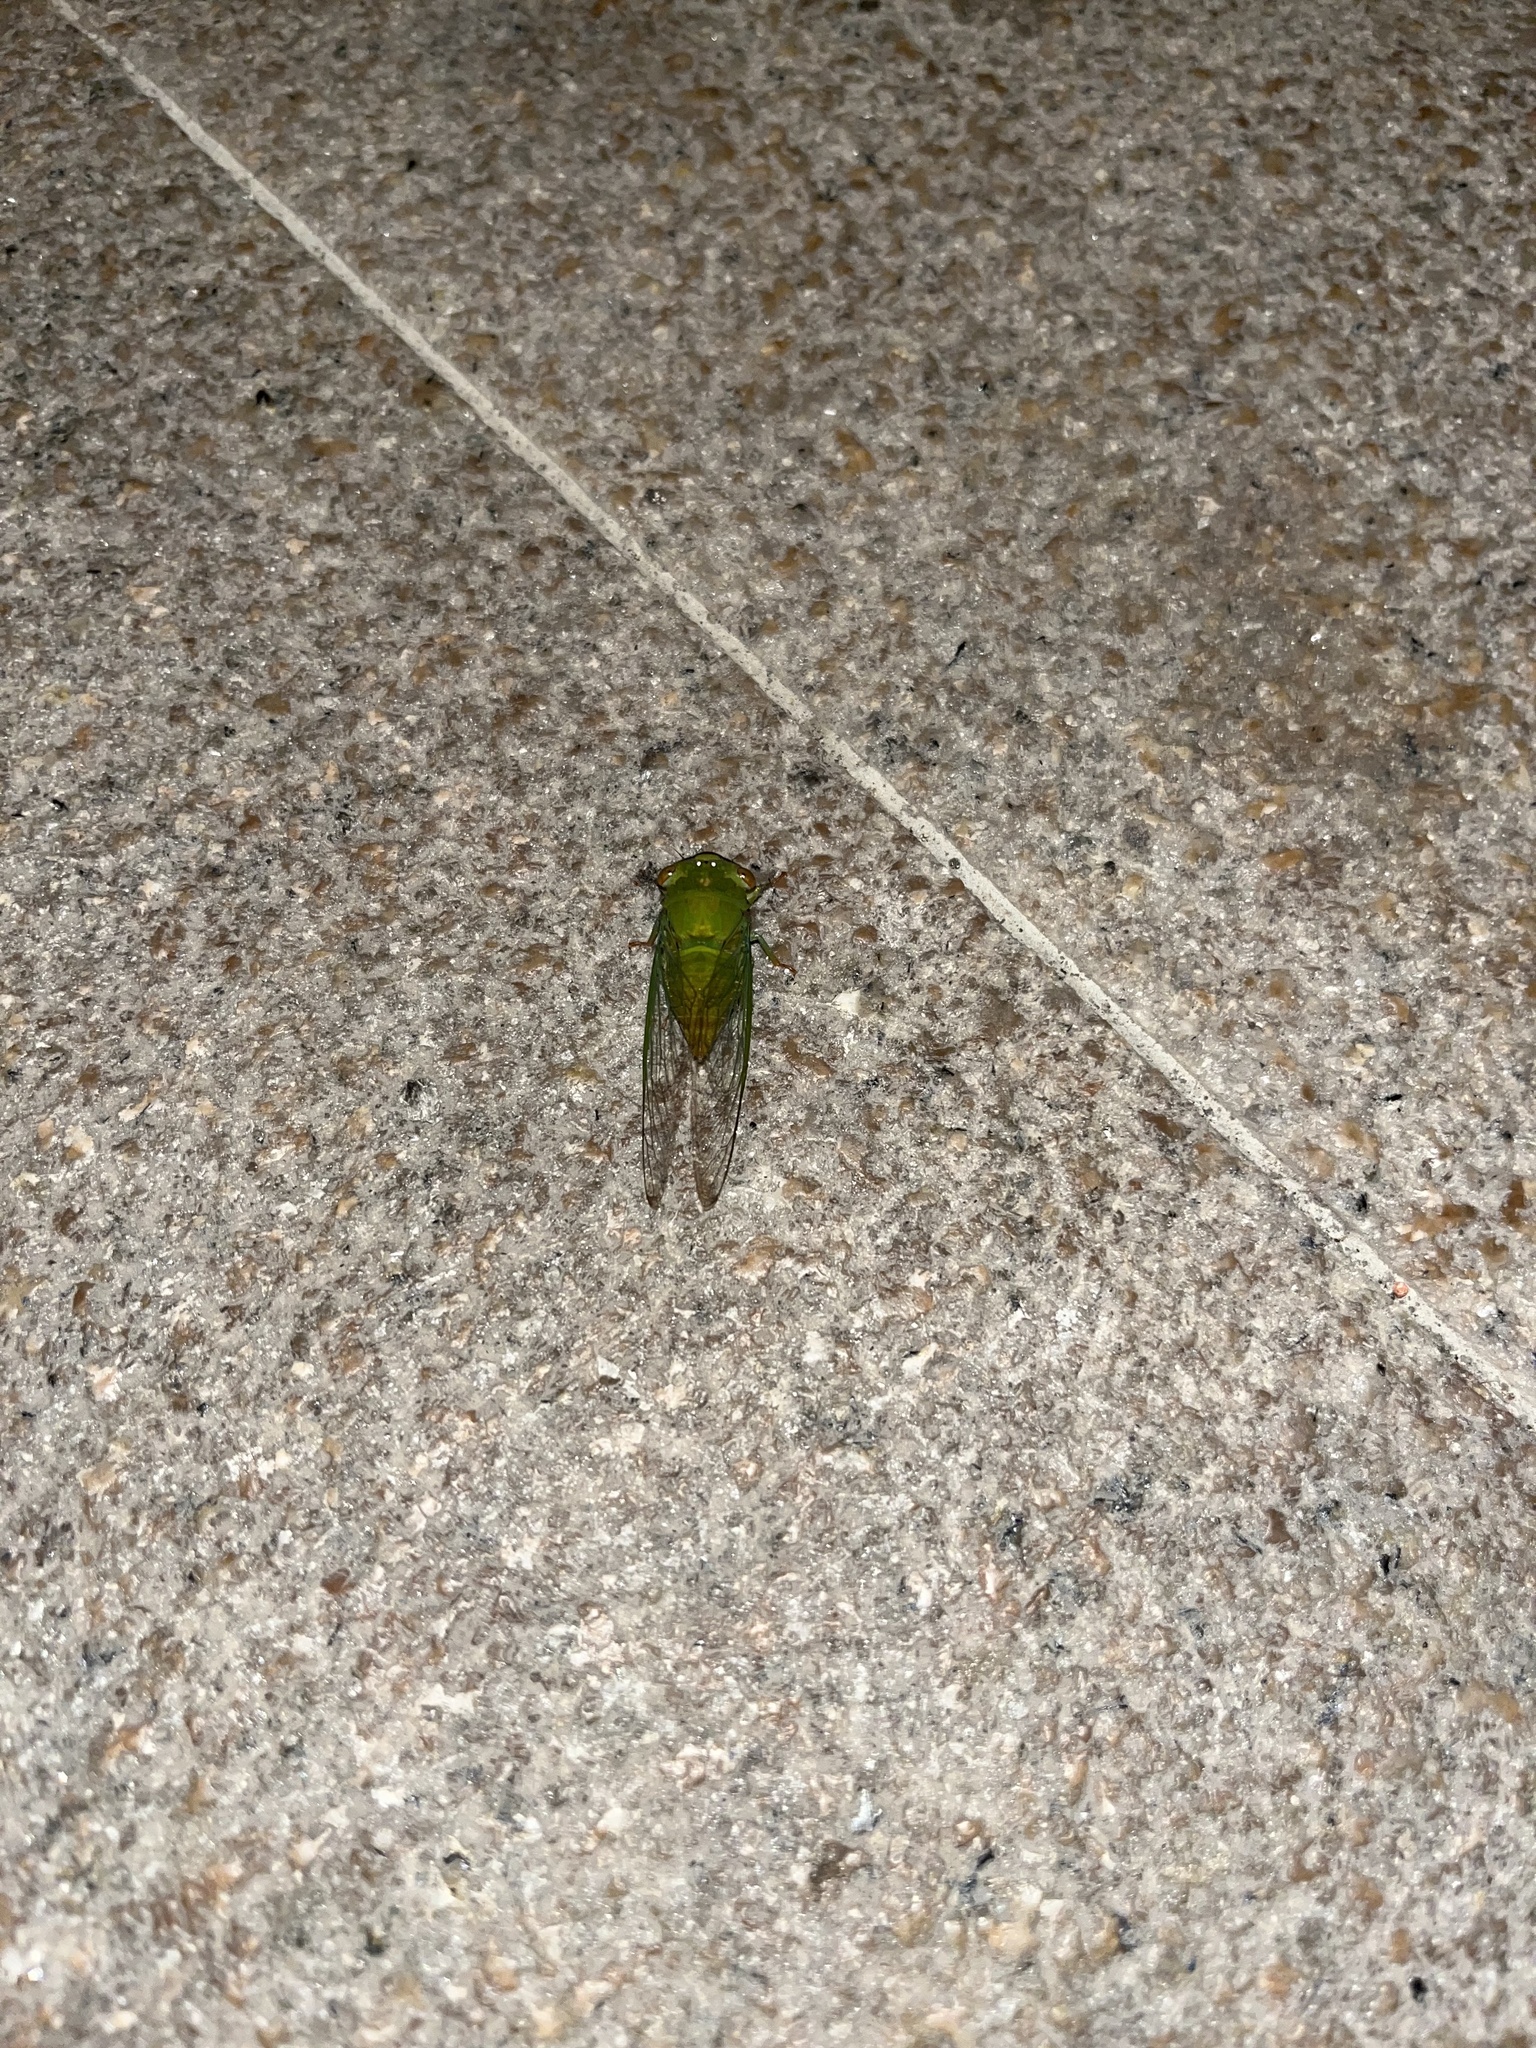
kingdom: Animalia
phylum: Arthropoda
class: Insecta
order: Hemiptera
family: Cicadidae
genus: Chremistica
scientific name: Chremistica ochracea
